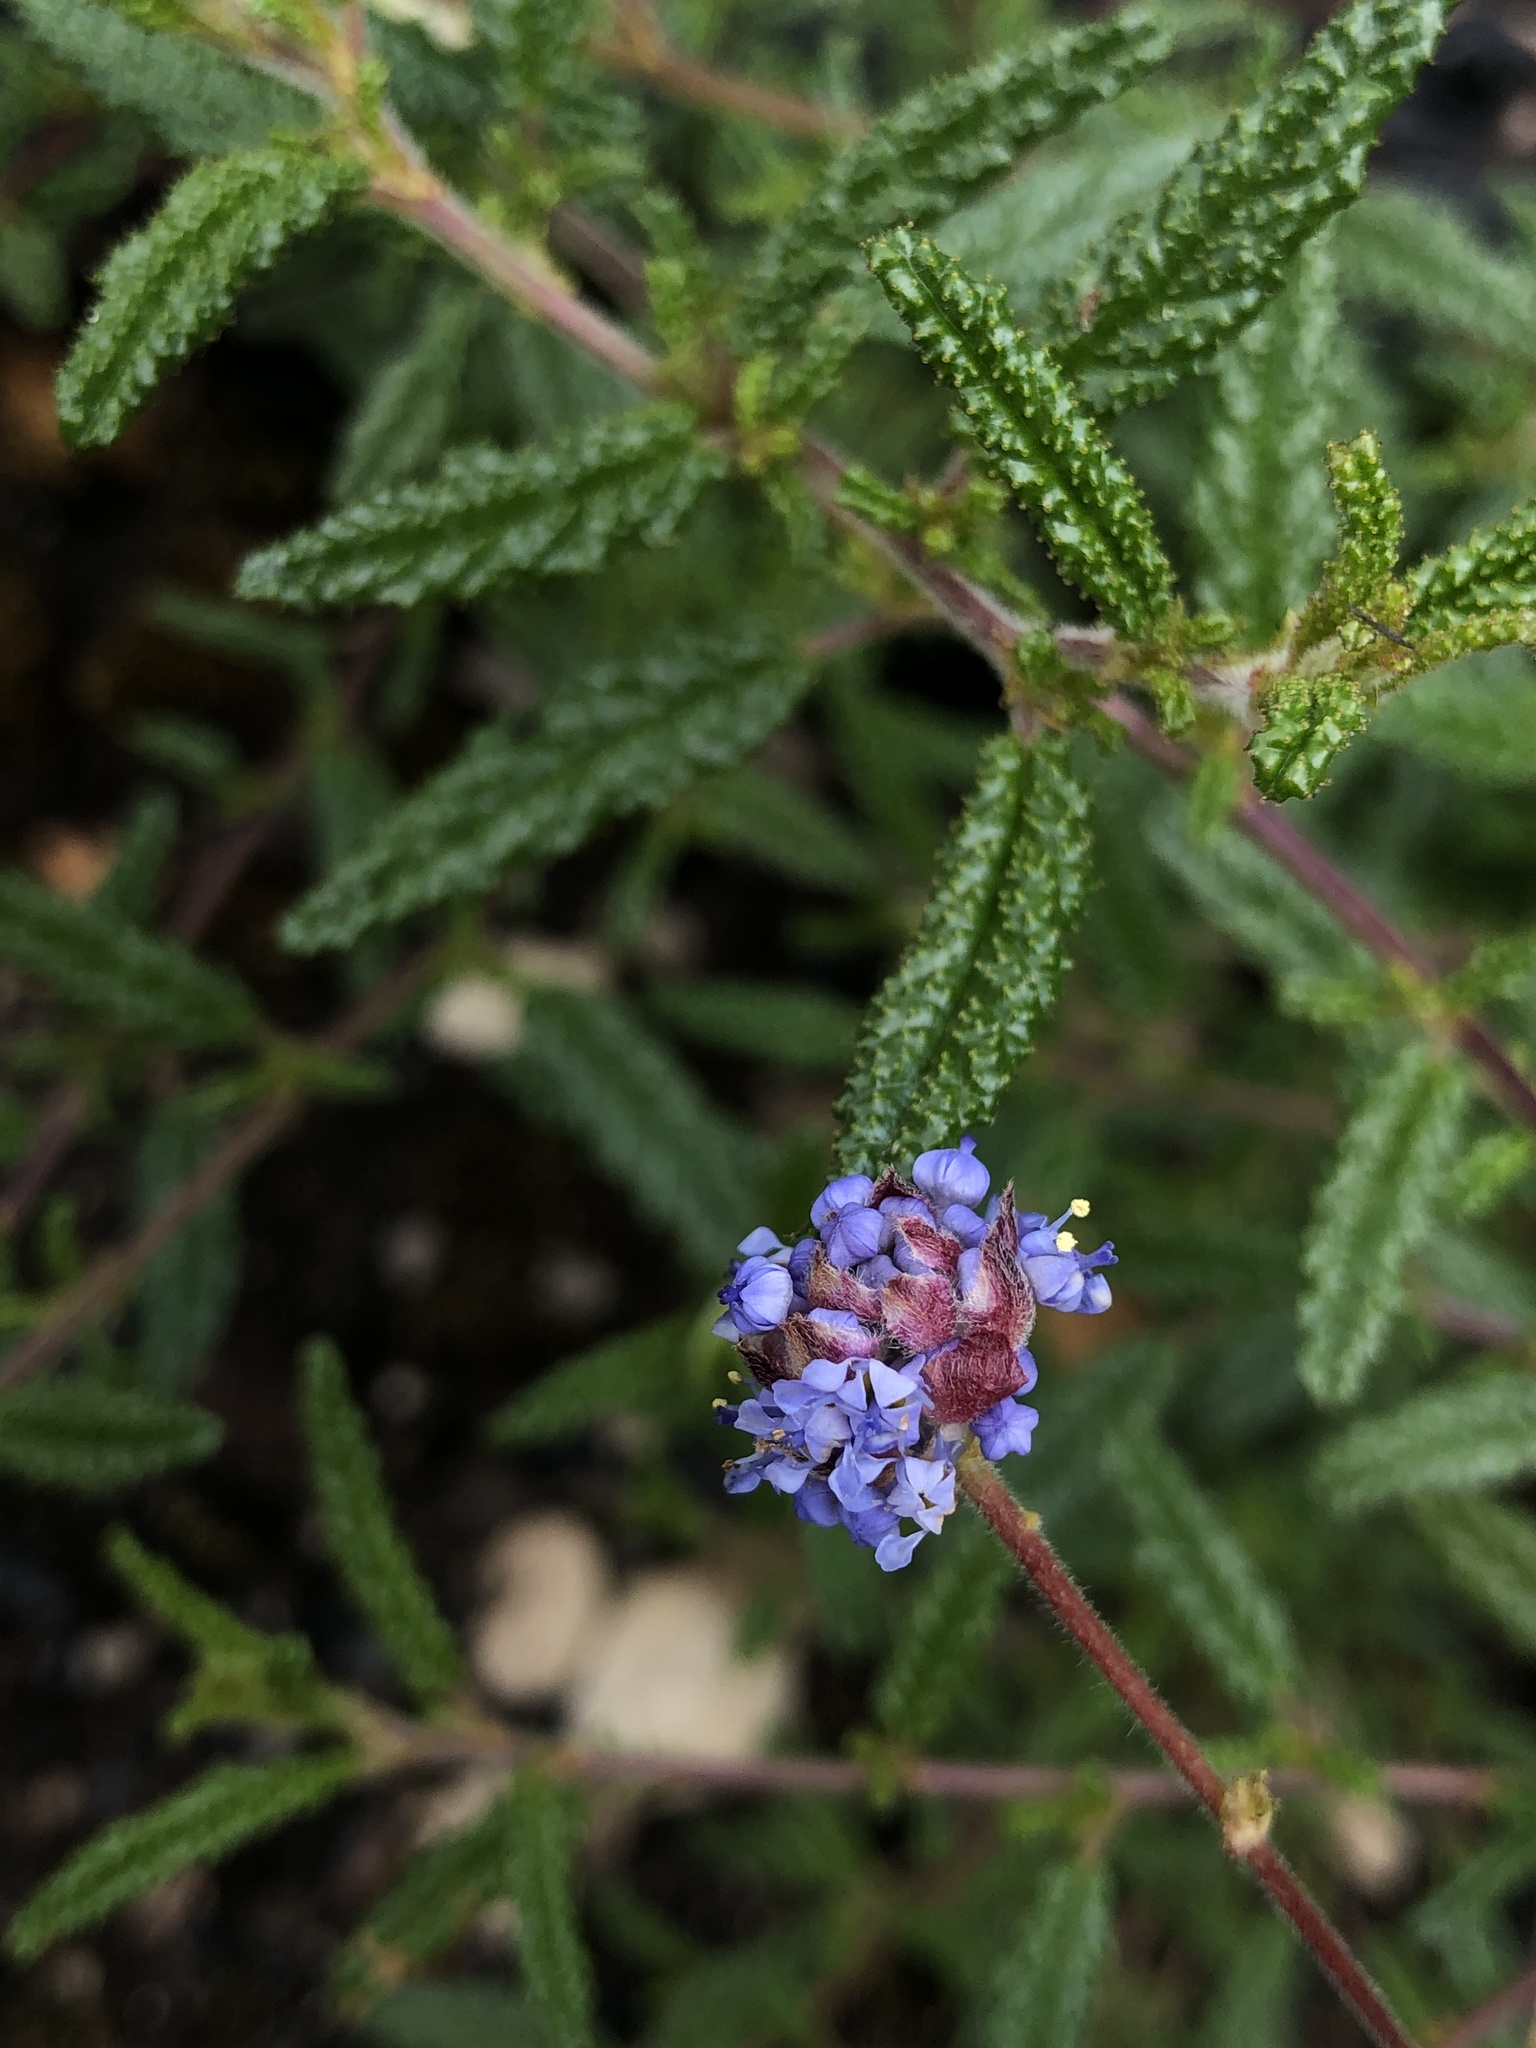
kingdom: Plantae
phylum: Tracheophyta
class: Magnoliopsida
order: Rosales
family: Rhamnaceae
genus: Ceanothus
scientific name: Ceanothus papillosus
